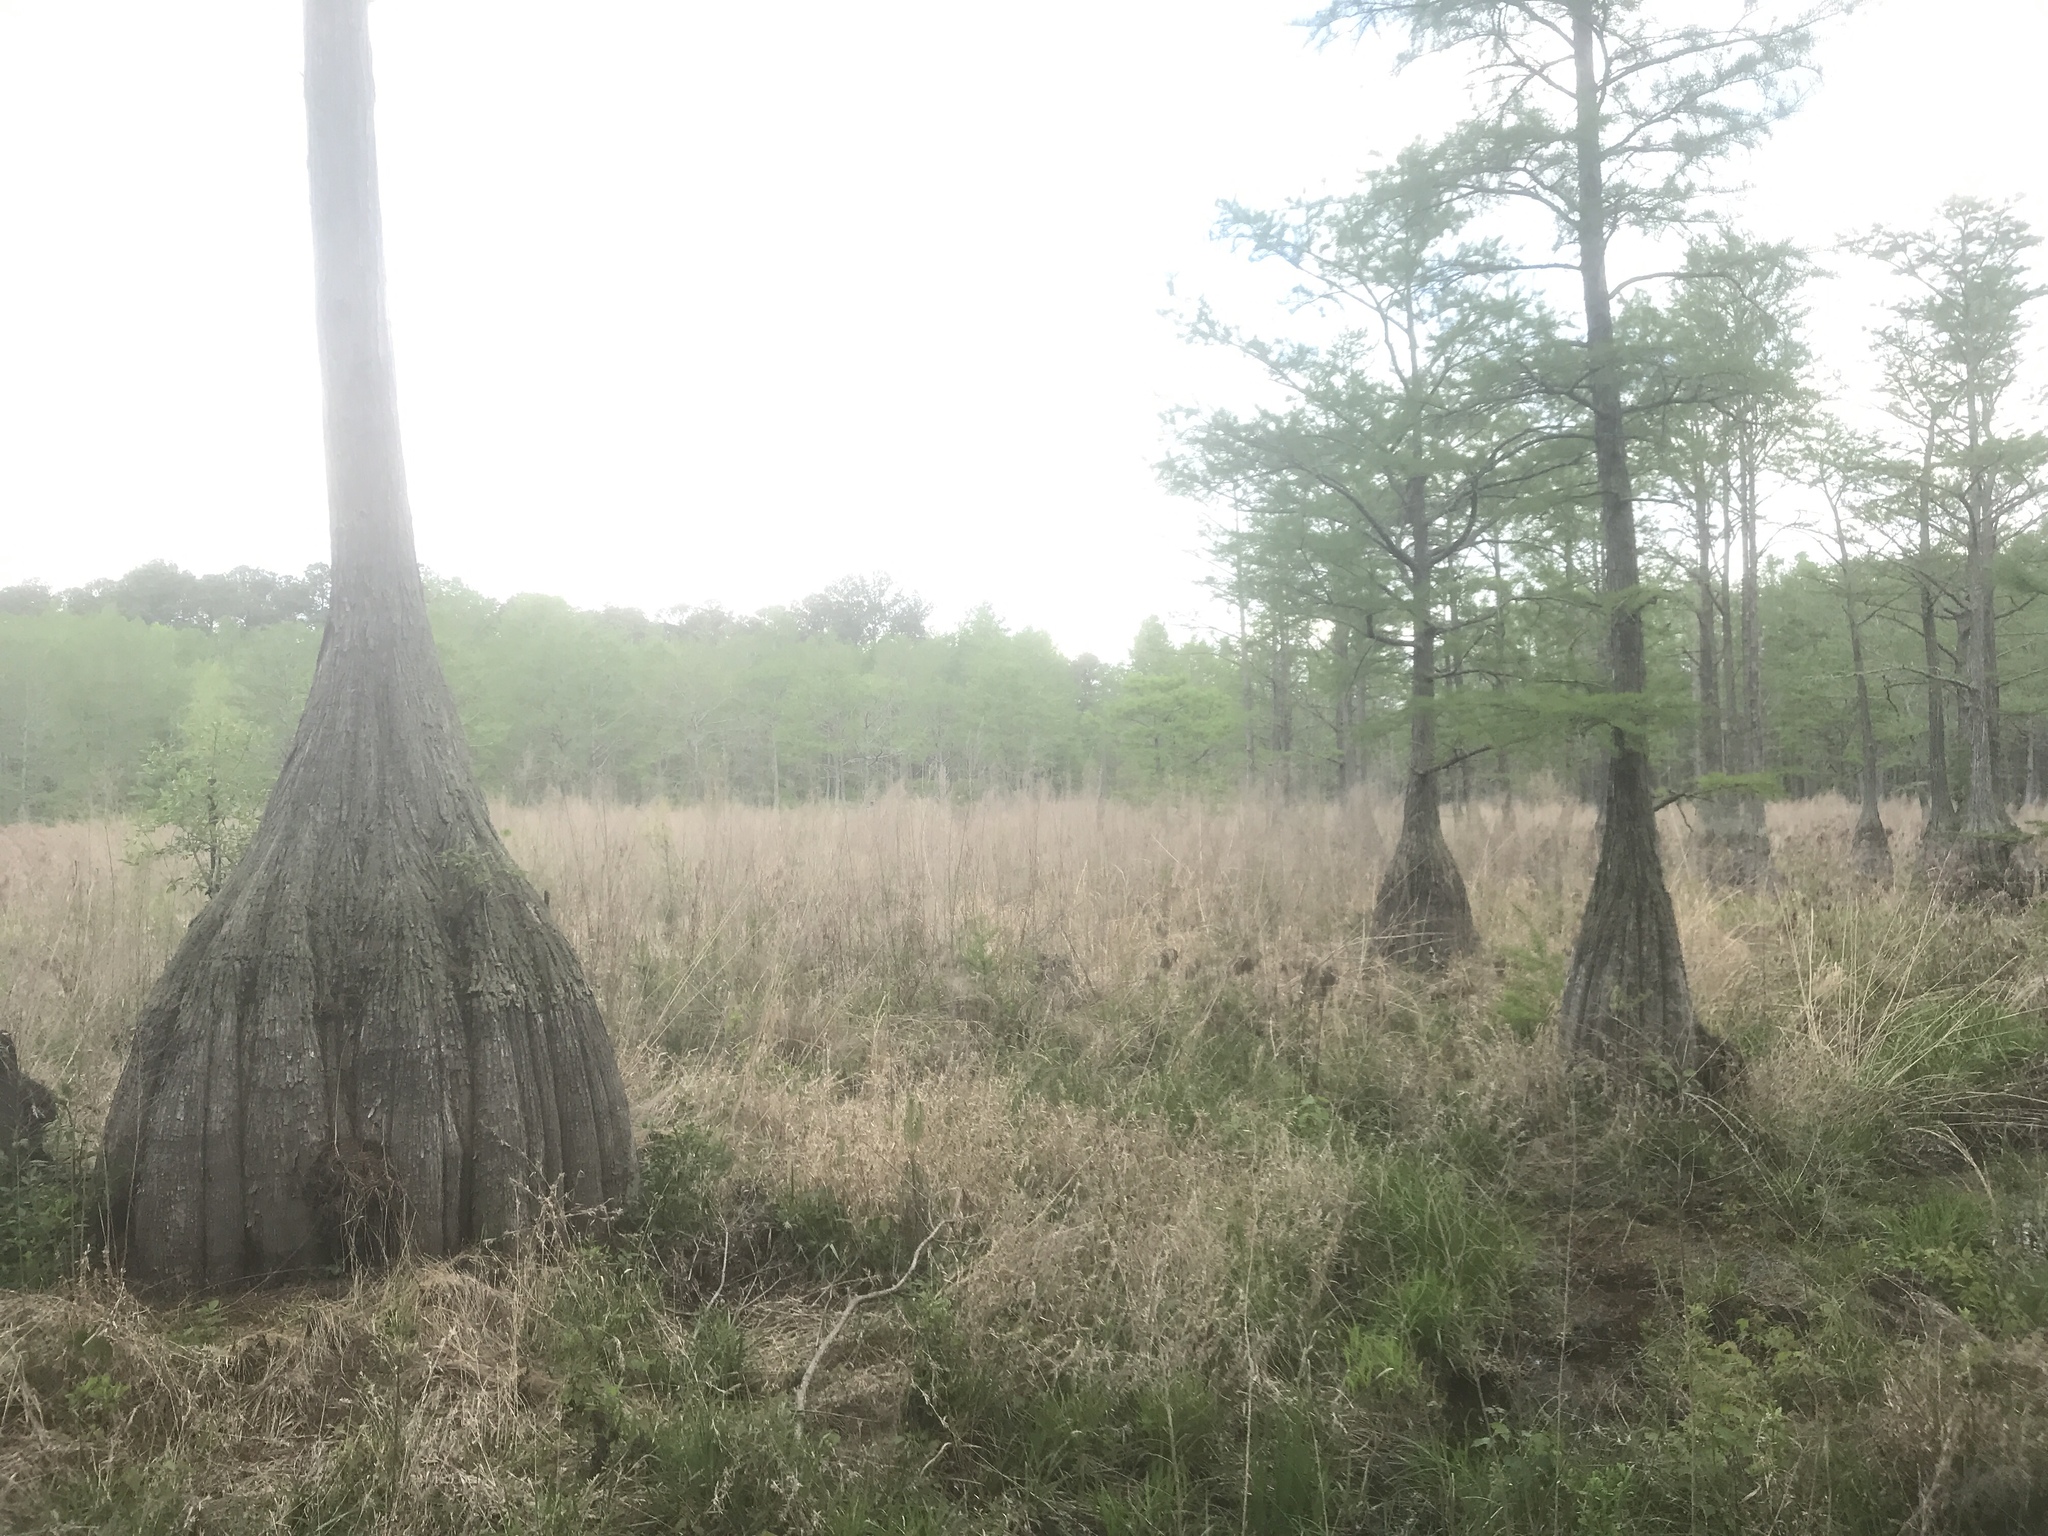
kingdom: Plantae
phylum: Tracheophyta
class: Pinopsida
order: Pinales
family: Cupressaceae
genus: Taxodium
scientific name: Taxodium distichum
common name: Bald cypress
